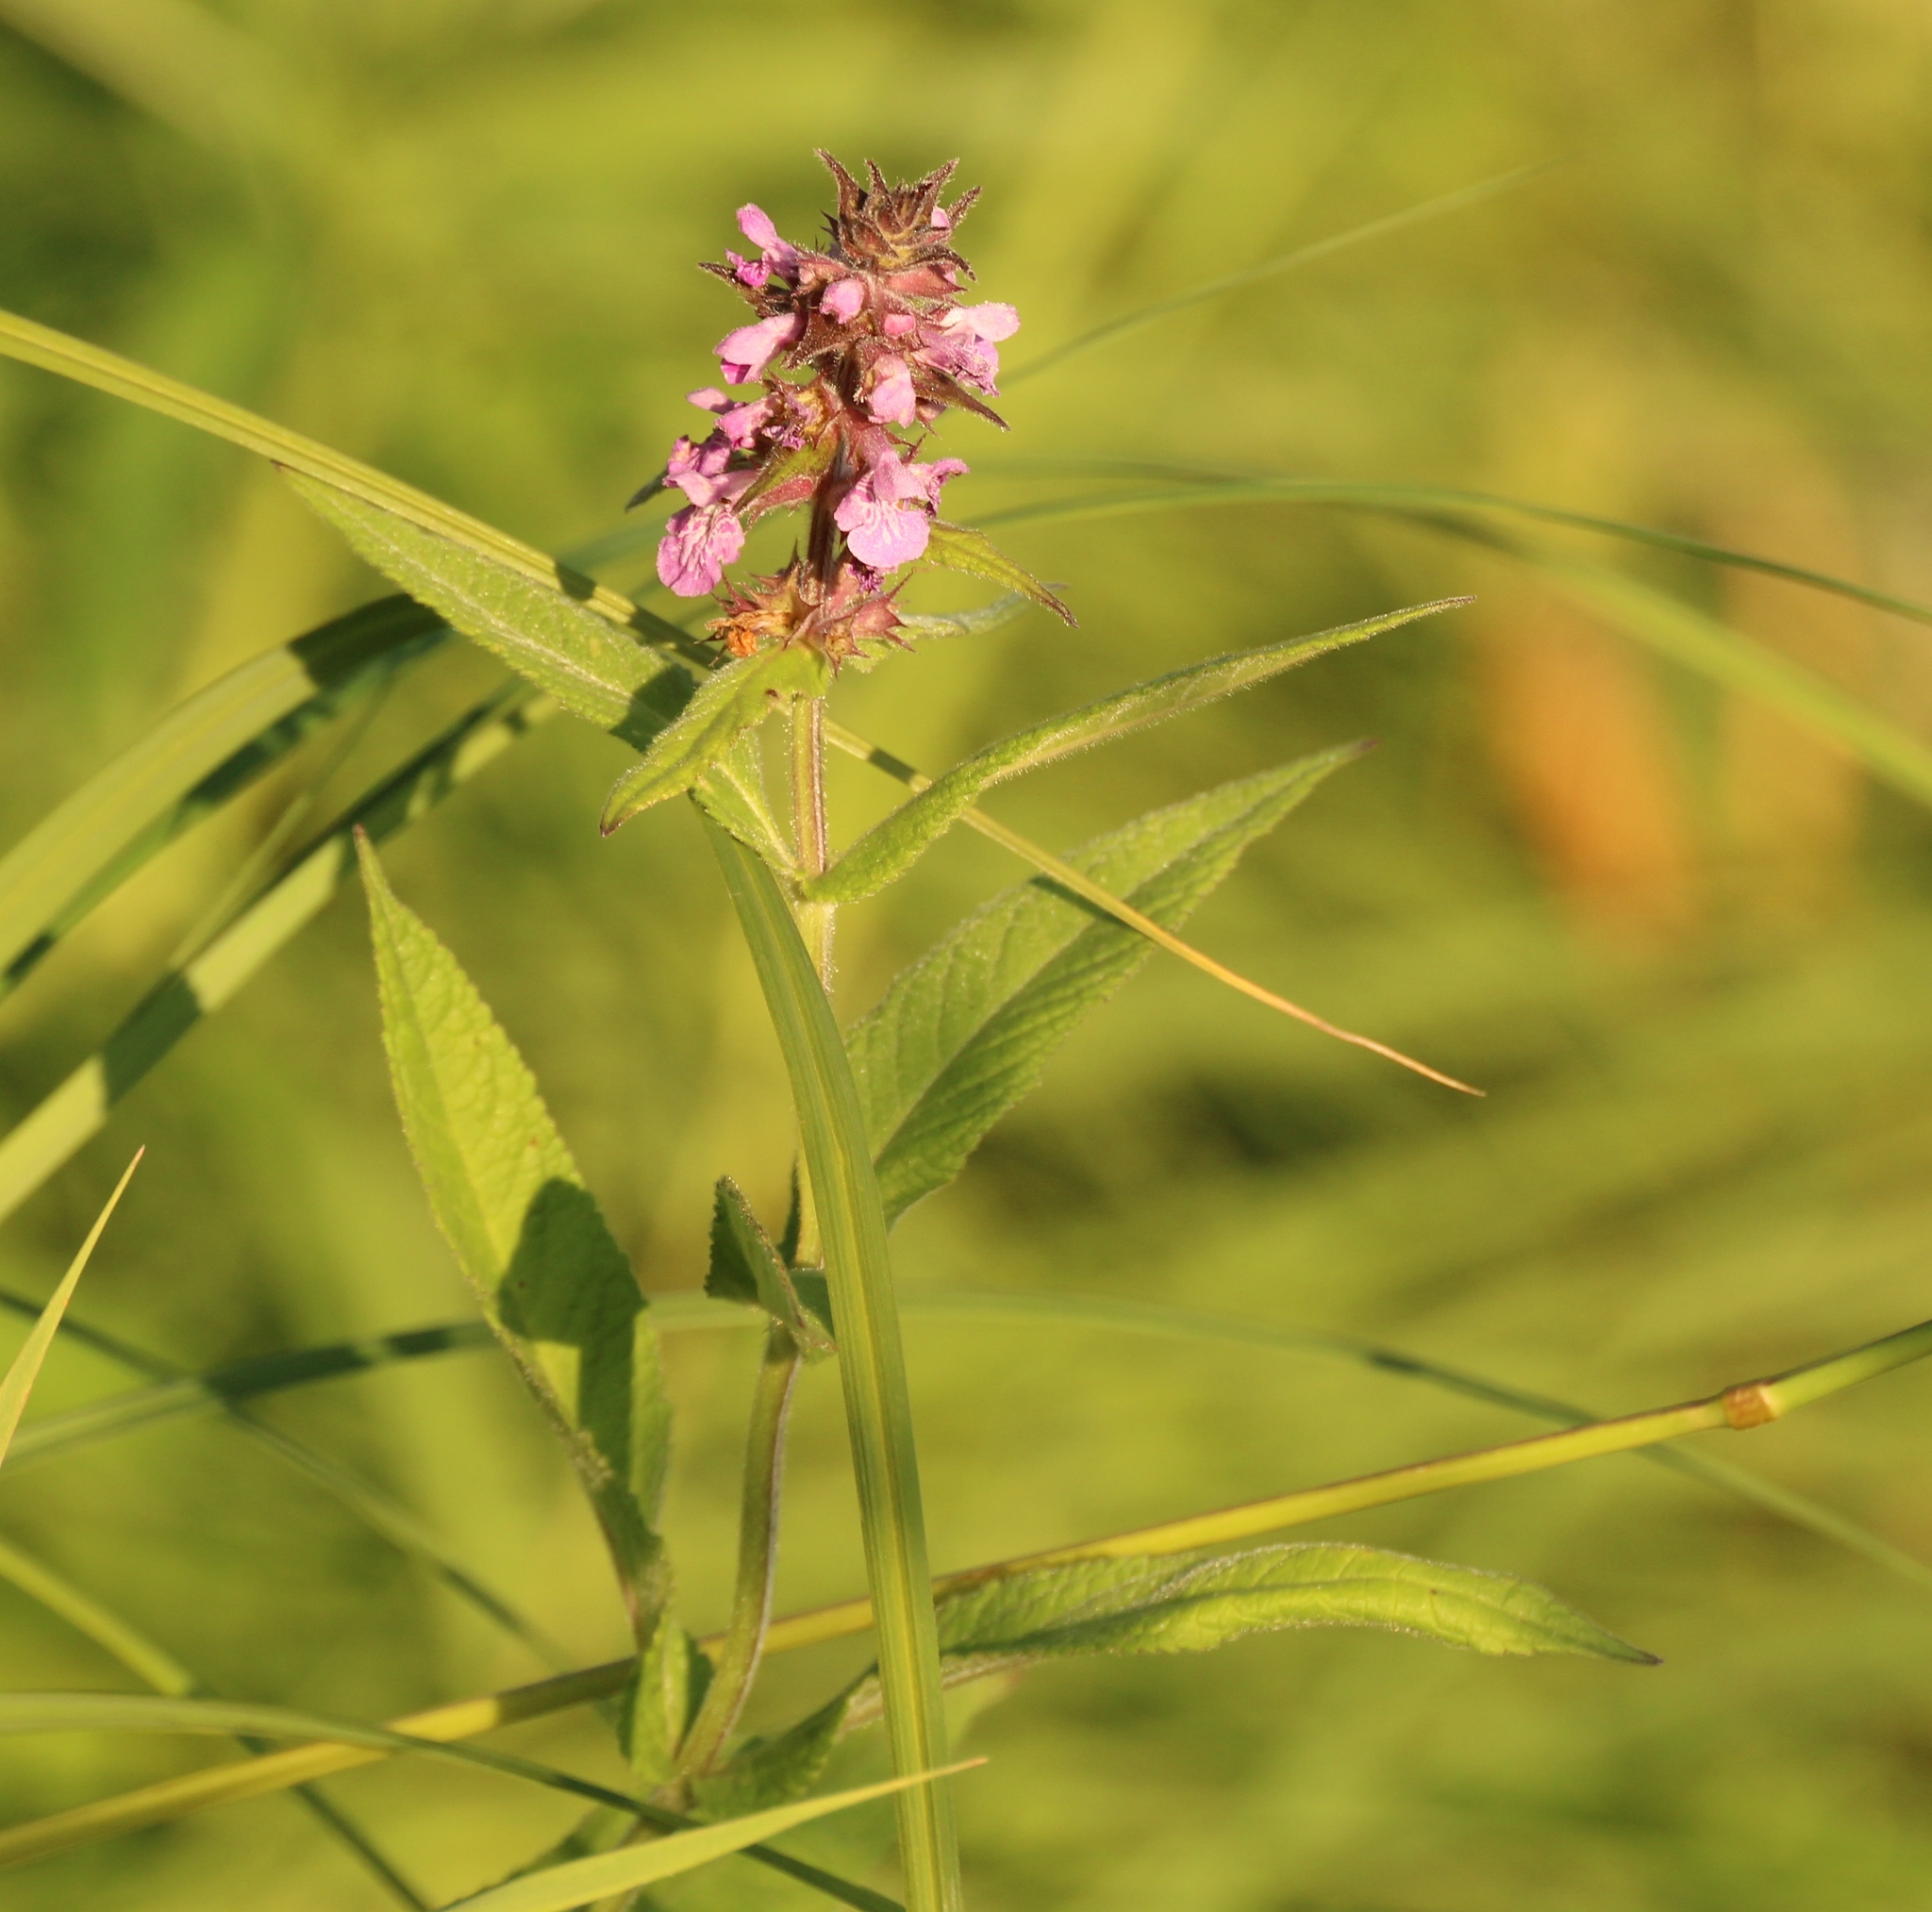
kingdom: Plantae
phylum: Tracheophyta
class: Magnoliopsida
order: Lamiales
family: Lamiaceae
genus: Stachys
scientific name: Stachys palustris
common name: Marsh woundwort
